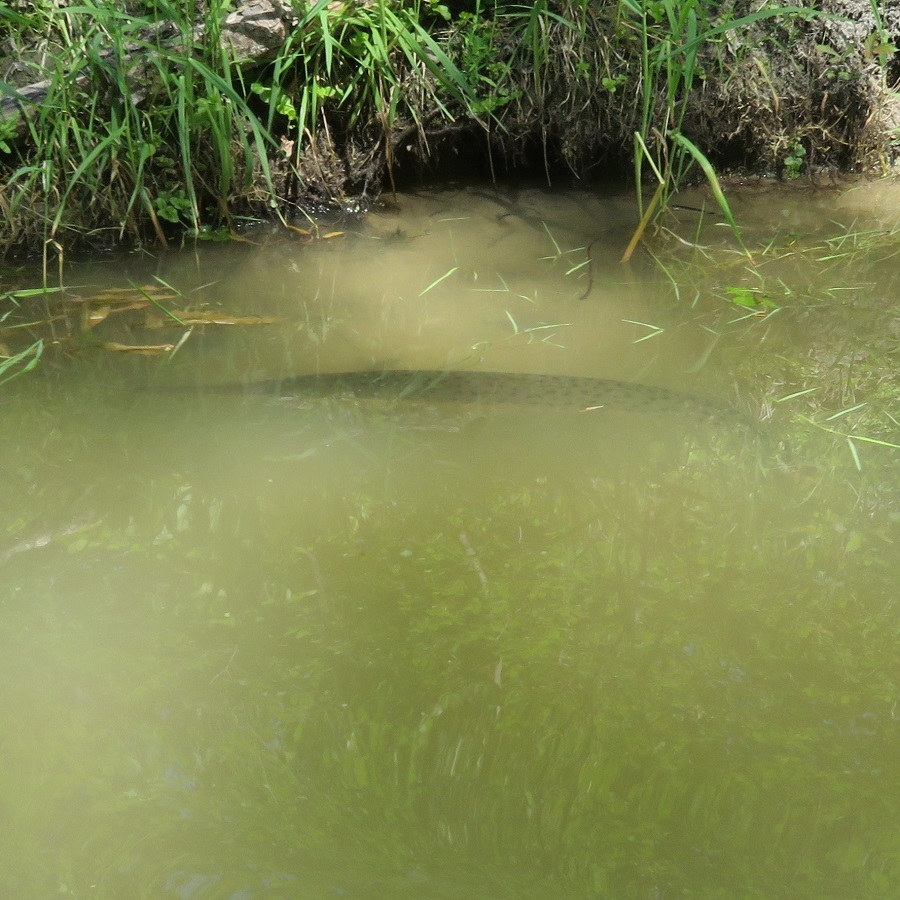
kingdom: Animalia
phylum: Chordata
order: Lepisosteiformes
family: Lepisosteidae
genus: Lepisosteus
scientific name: Lepisosteus osseus
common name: Longnose gar
